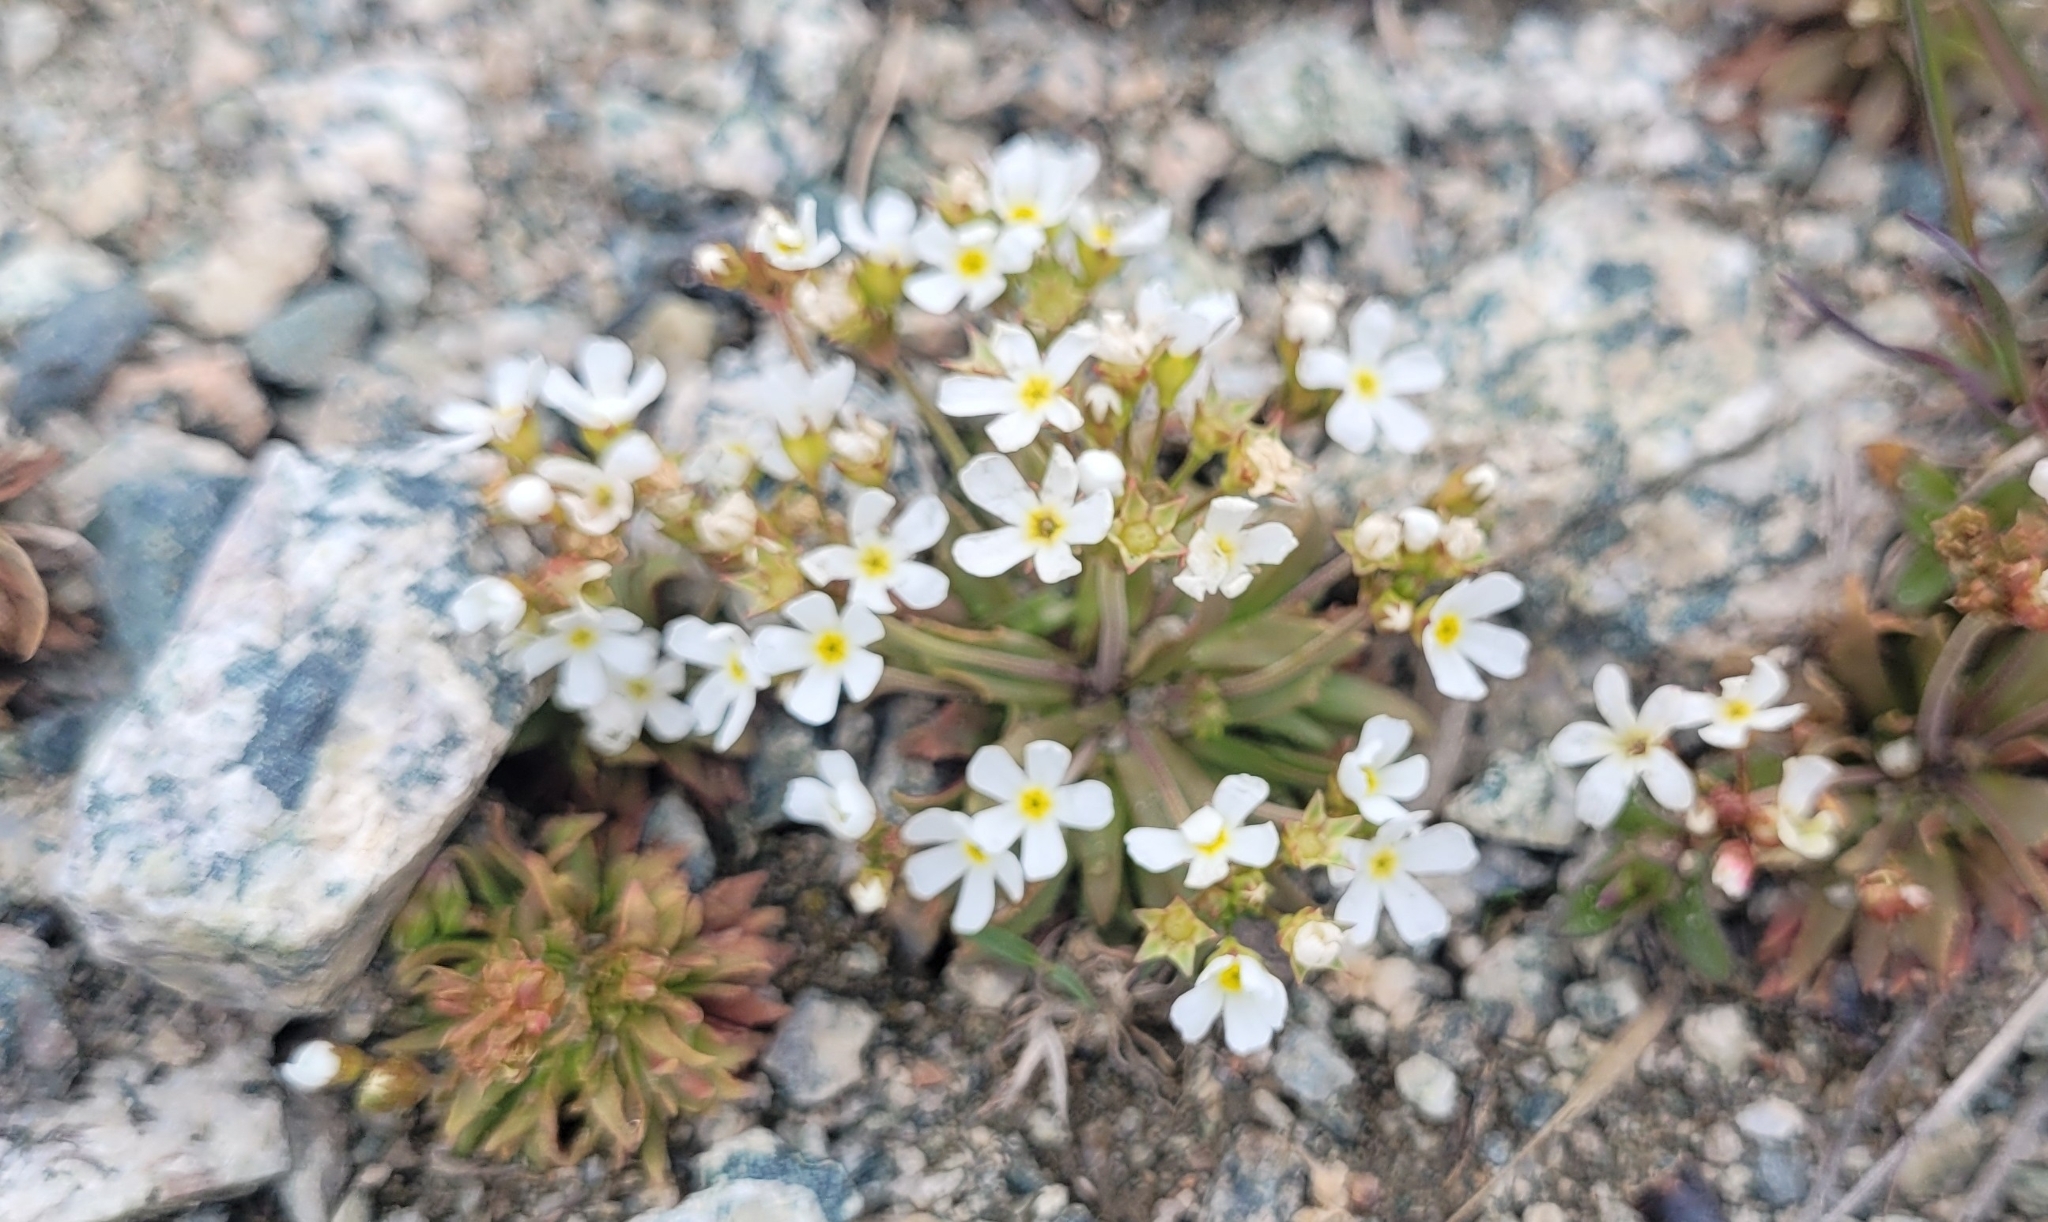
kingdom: Plantae
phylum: Tracheophyta
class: Magnoliopsida
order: Ericales
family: Primulaceae
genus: Androsace
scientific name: Androsace septentrionalis
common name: Hairy northern fairy-candelabra
